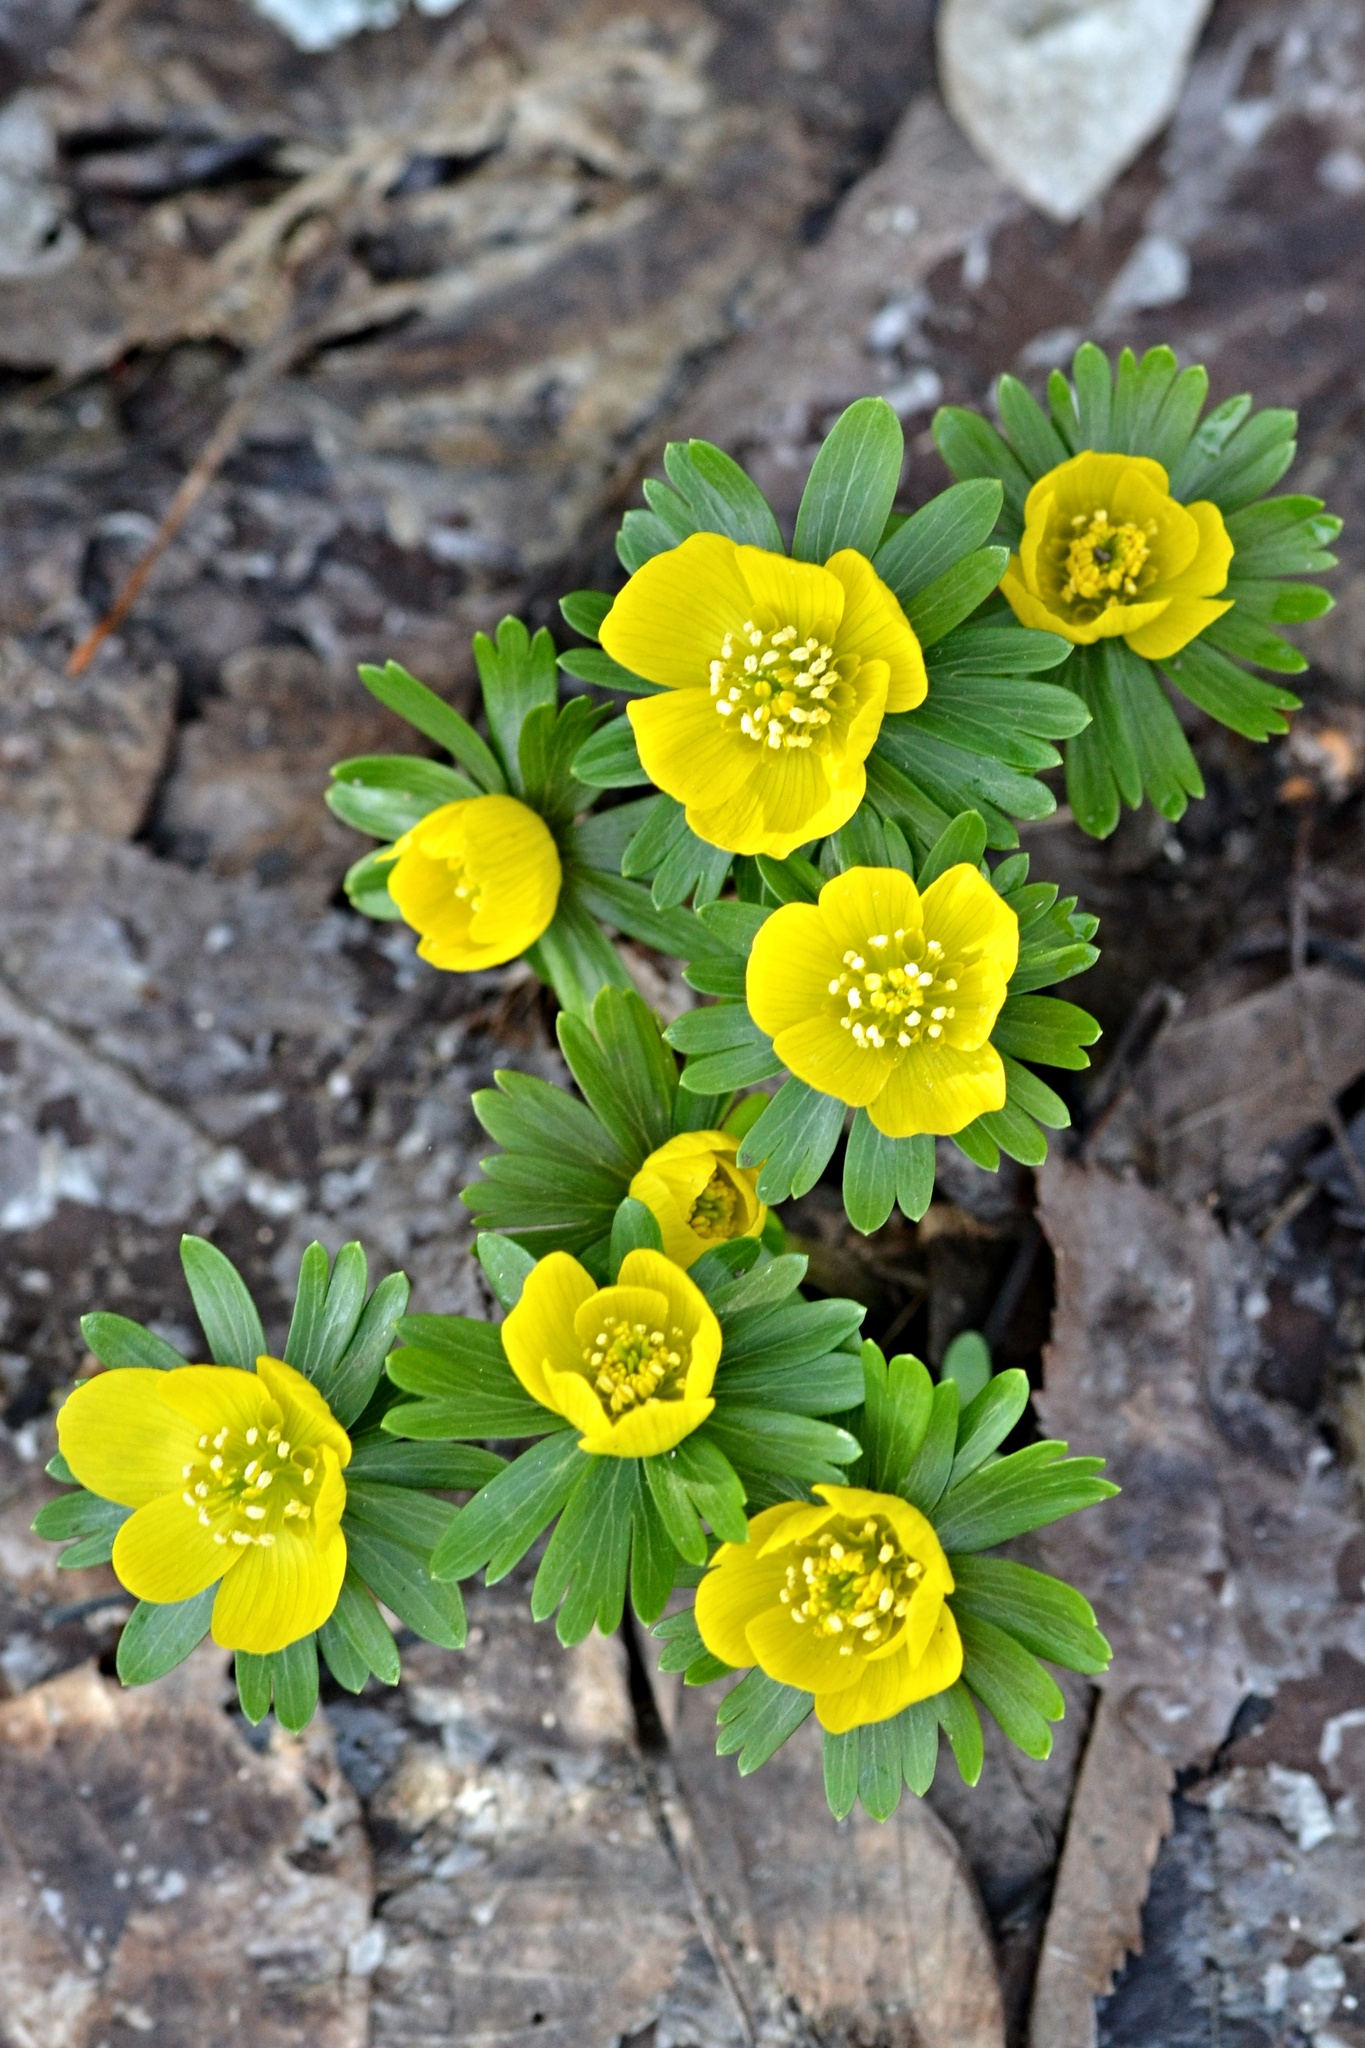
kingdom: Plantae
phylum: Tracheophyta
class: Magnoliopsida
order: Ranunculales
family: Ranunculaceae
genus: Eranthis
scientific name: Eranthis hyemalis
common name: Winter aconite
